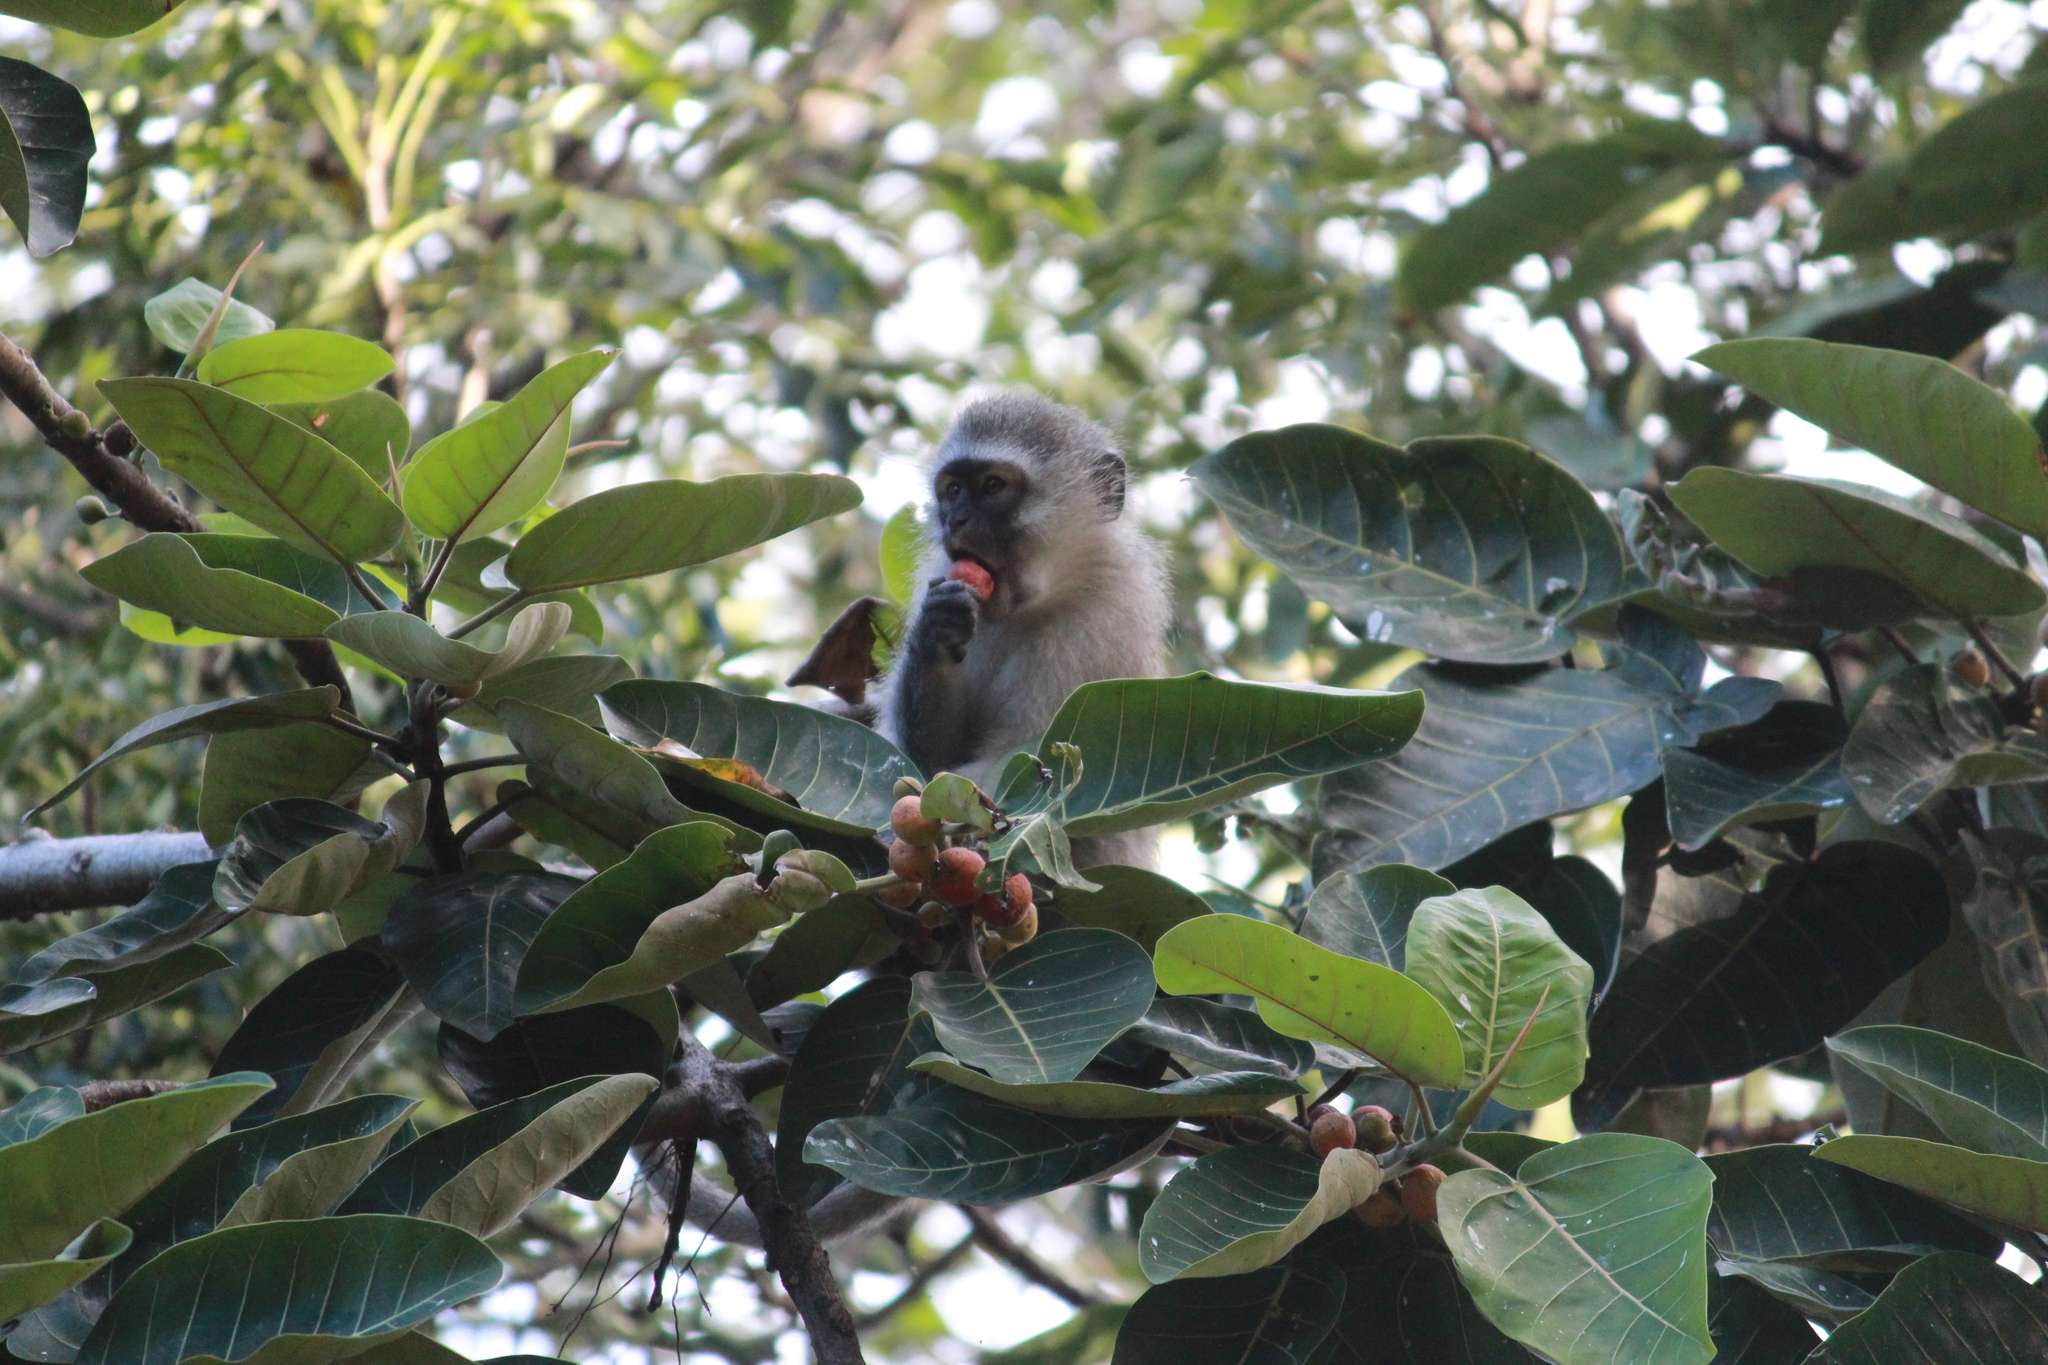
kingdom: Animalia
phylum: Chordata
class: Mammalia
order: Primates
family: Cercopithecidae
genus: Chlorocebus
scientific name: Chlorocebus pygerythrus
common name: Vervet monkey
